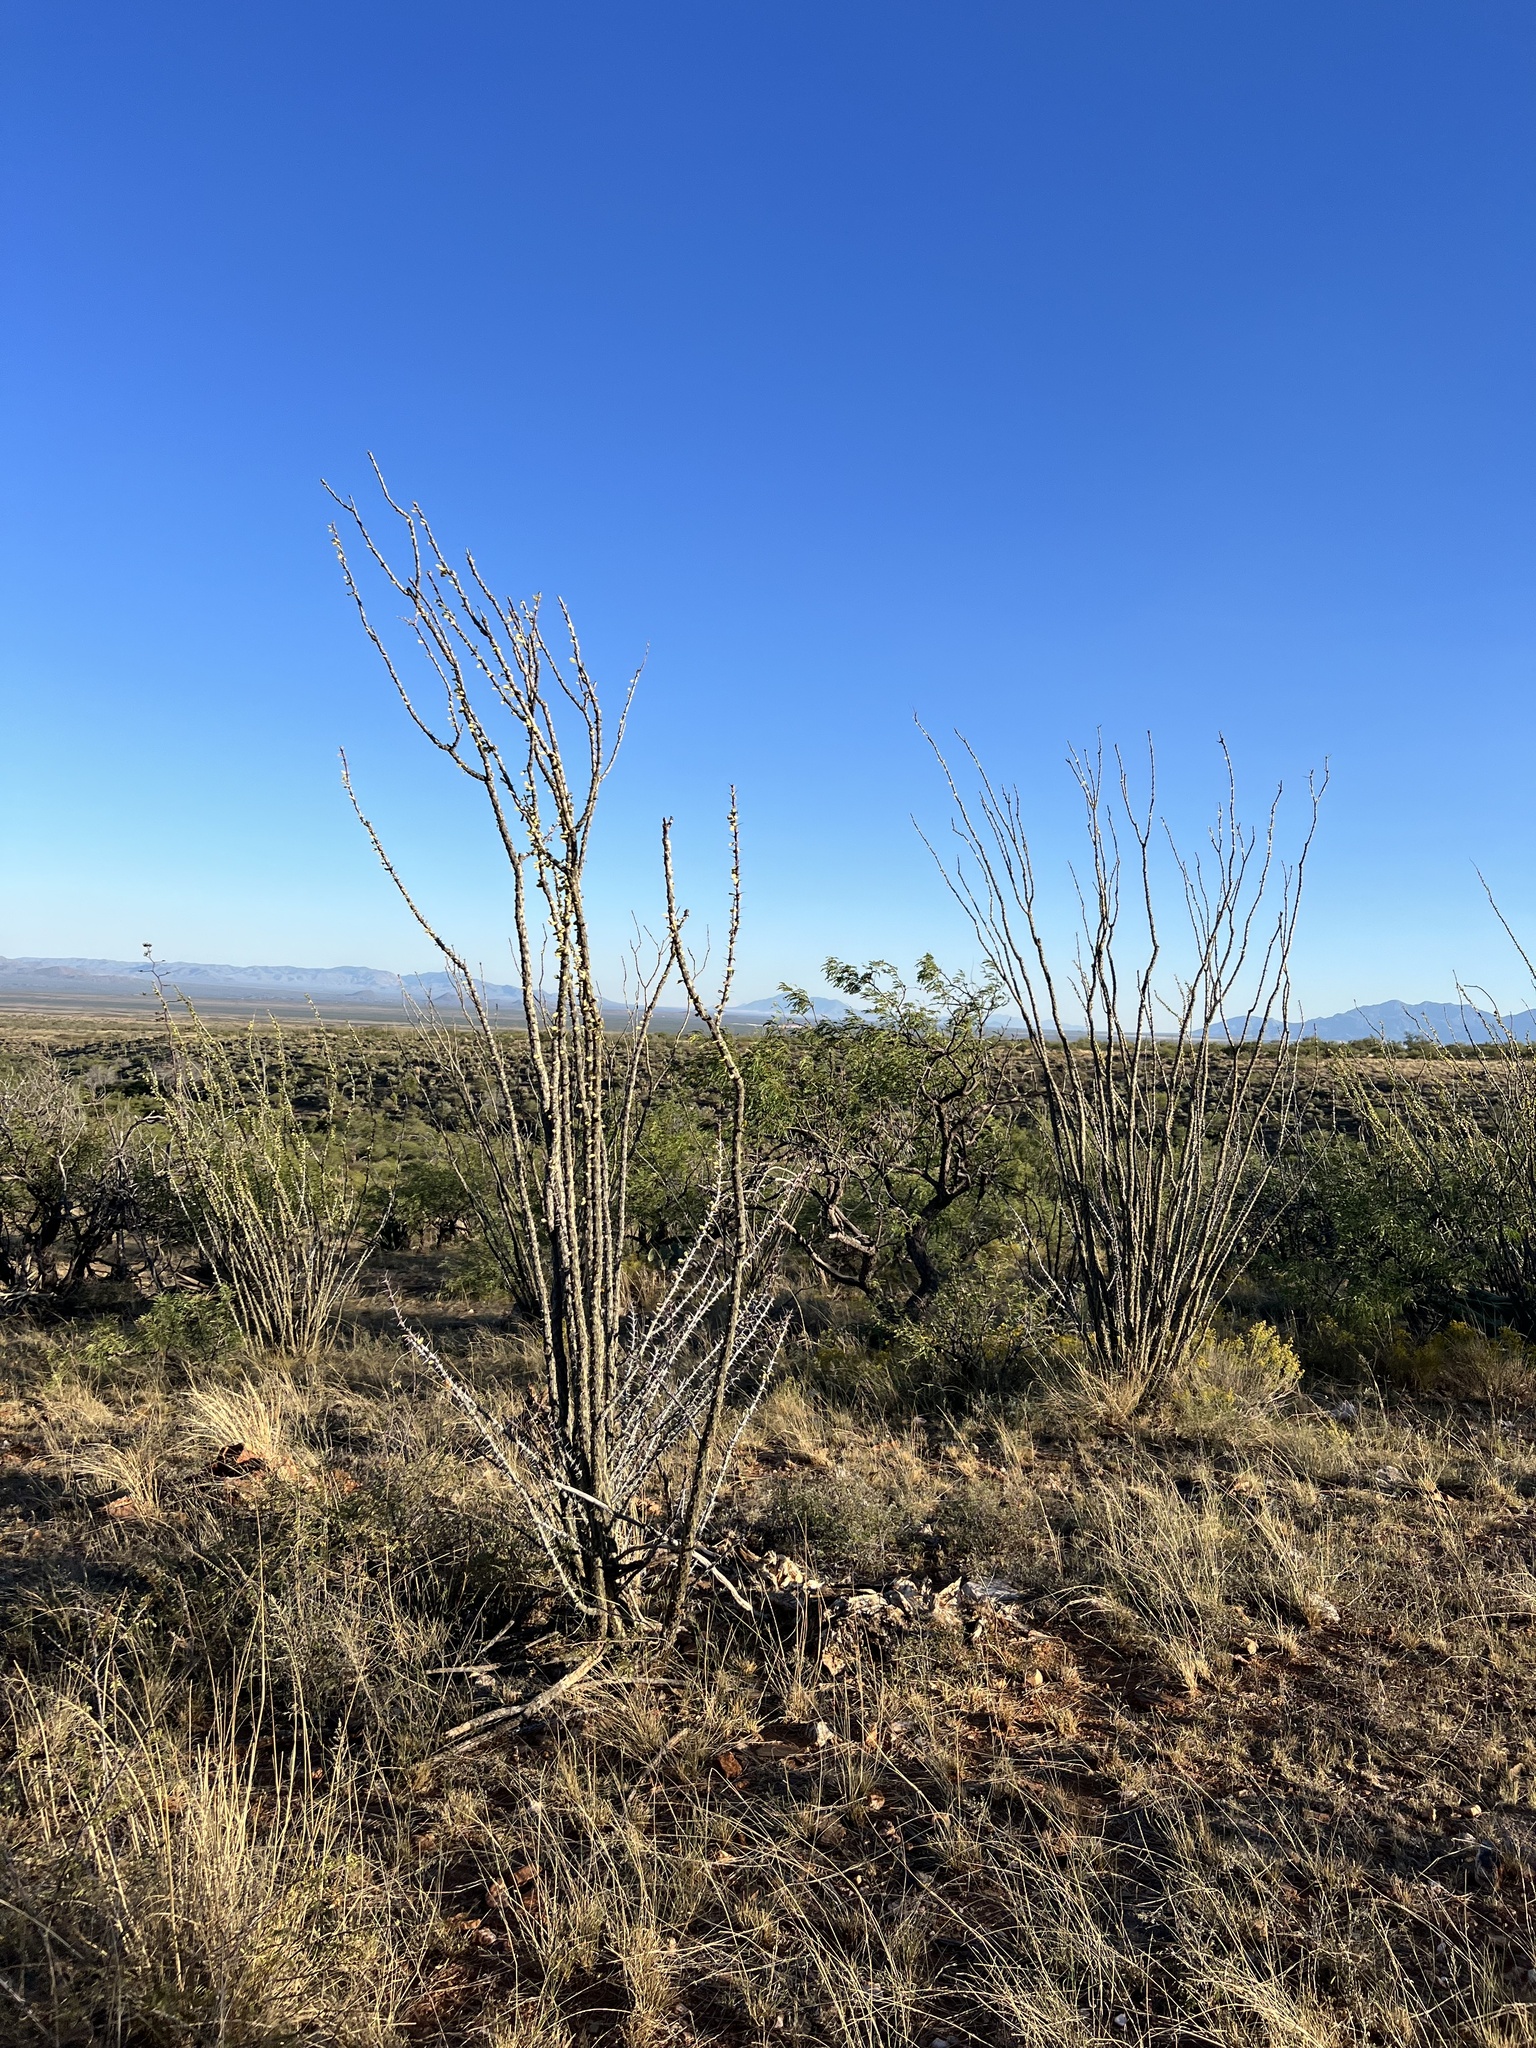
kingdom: Plantae
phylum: Tracheophyta
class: Magnoliopsida
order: Ericales
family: Fouquieriaceae
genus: Fouquieria
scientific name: Fouquieria splendens
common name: Vine-cactus
